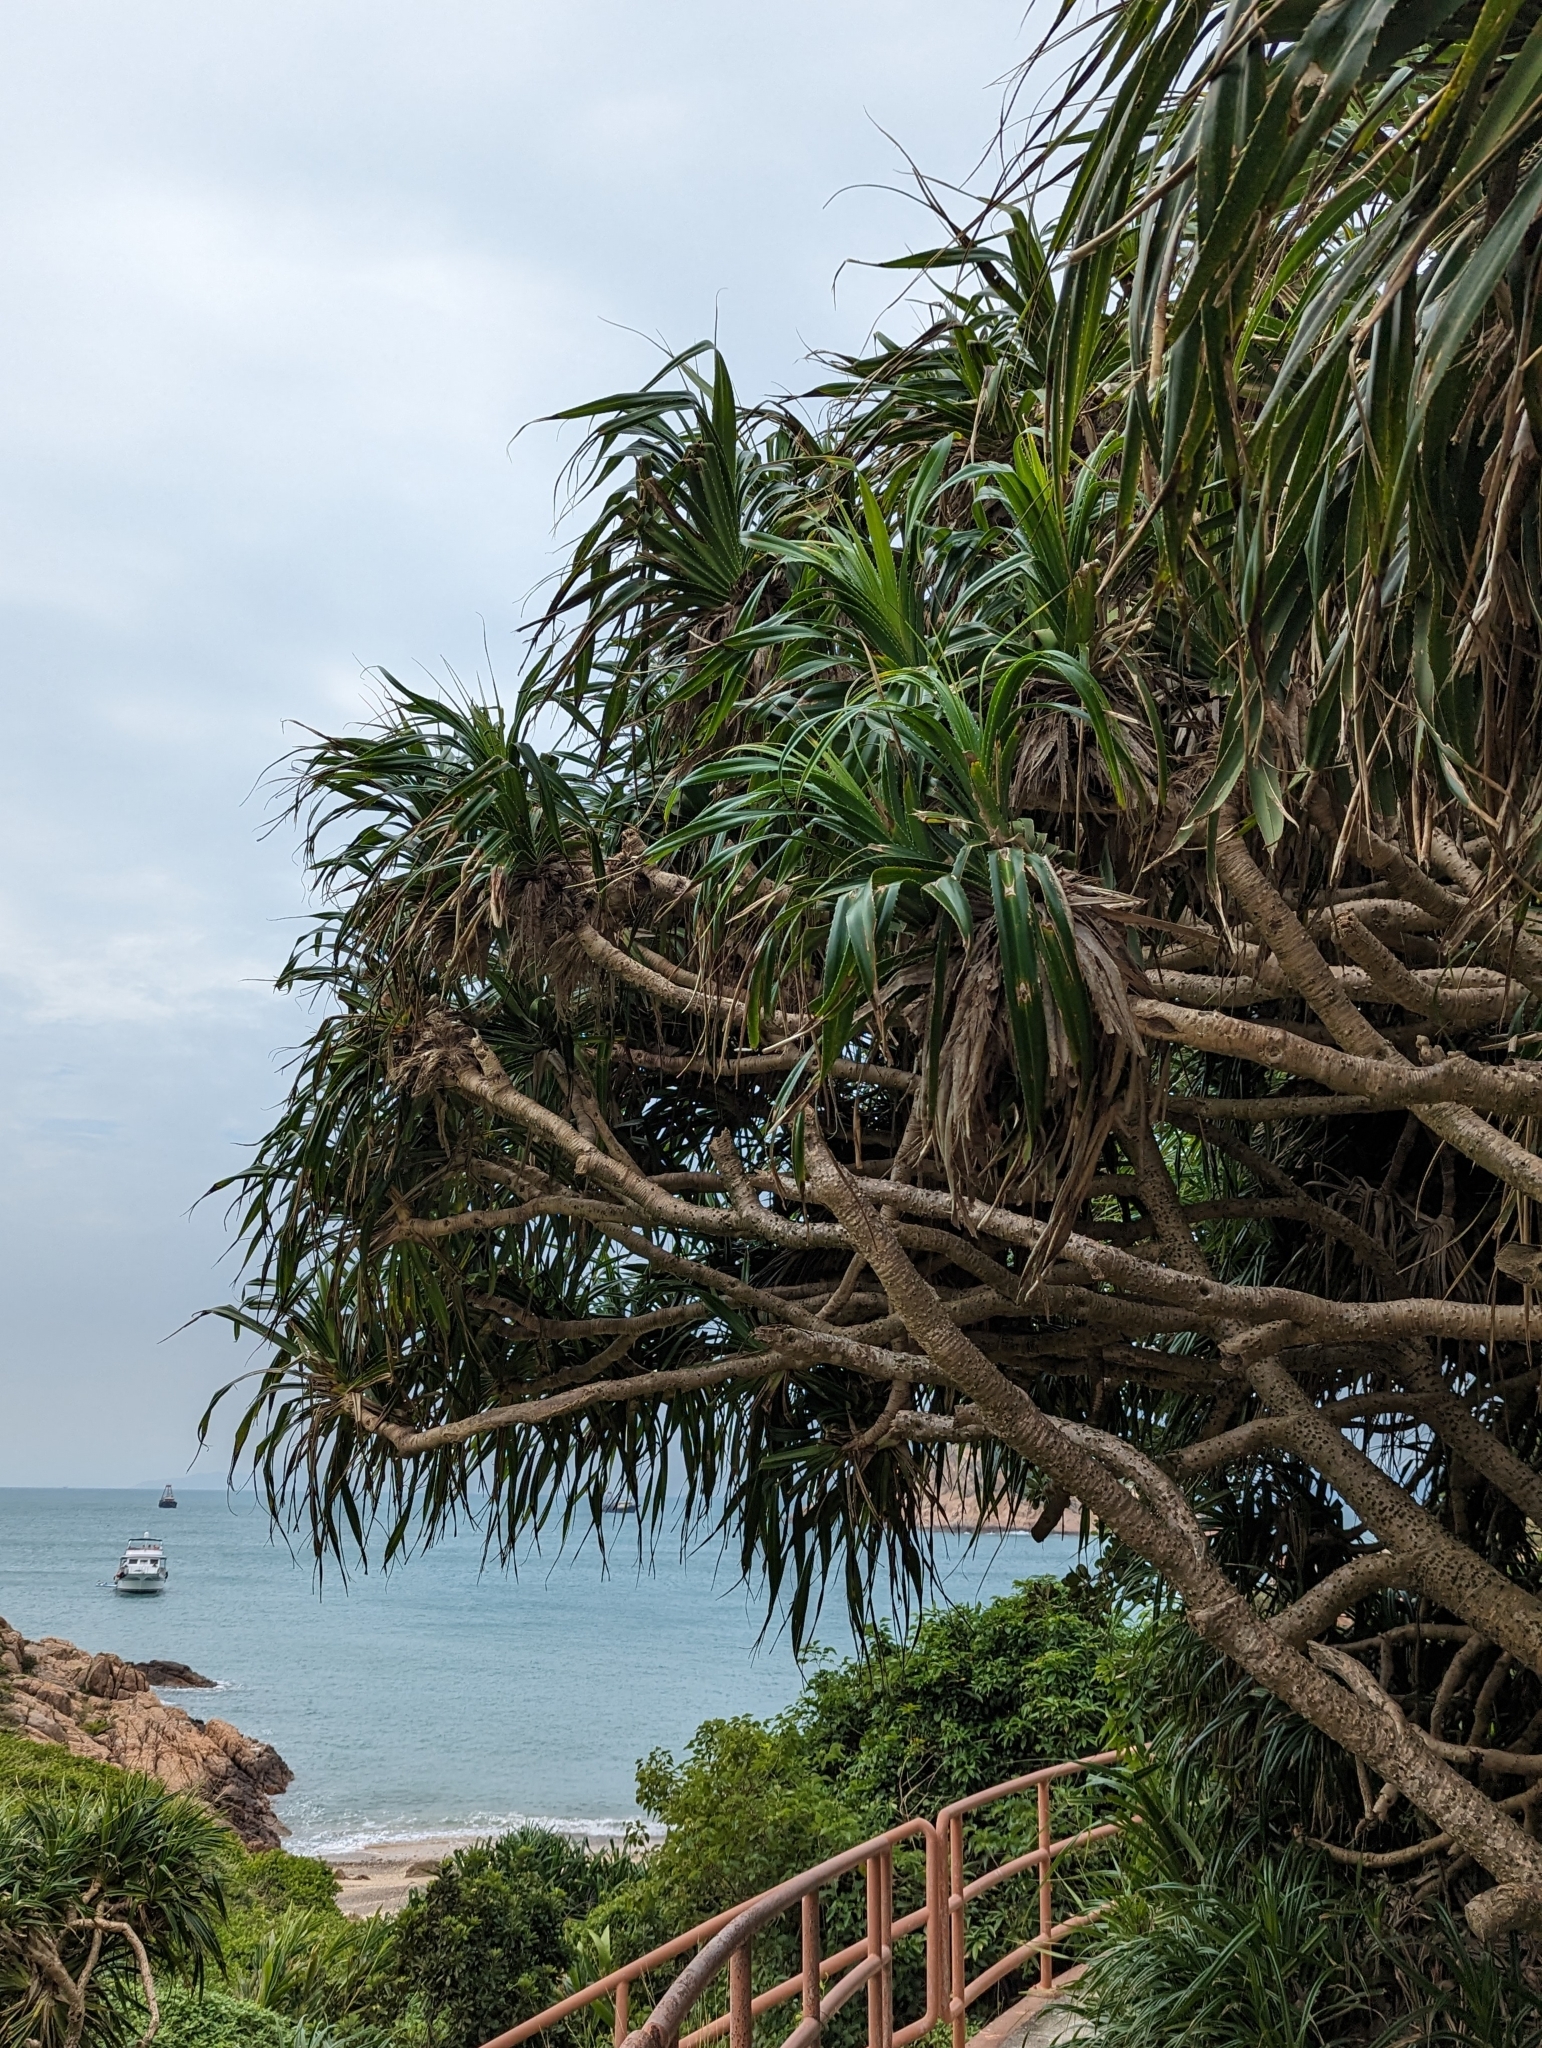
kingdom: Plantae
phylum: Tracheophyta
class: Liliopsida
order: Pandanales
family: Pandanaceae
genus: Pandanus
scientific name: Pandanus tectorius
